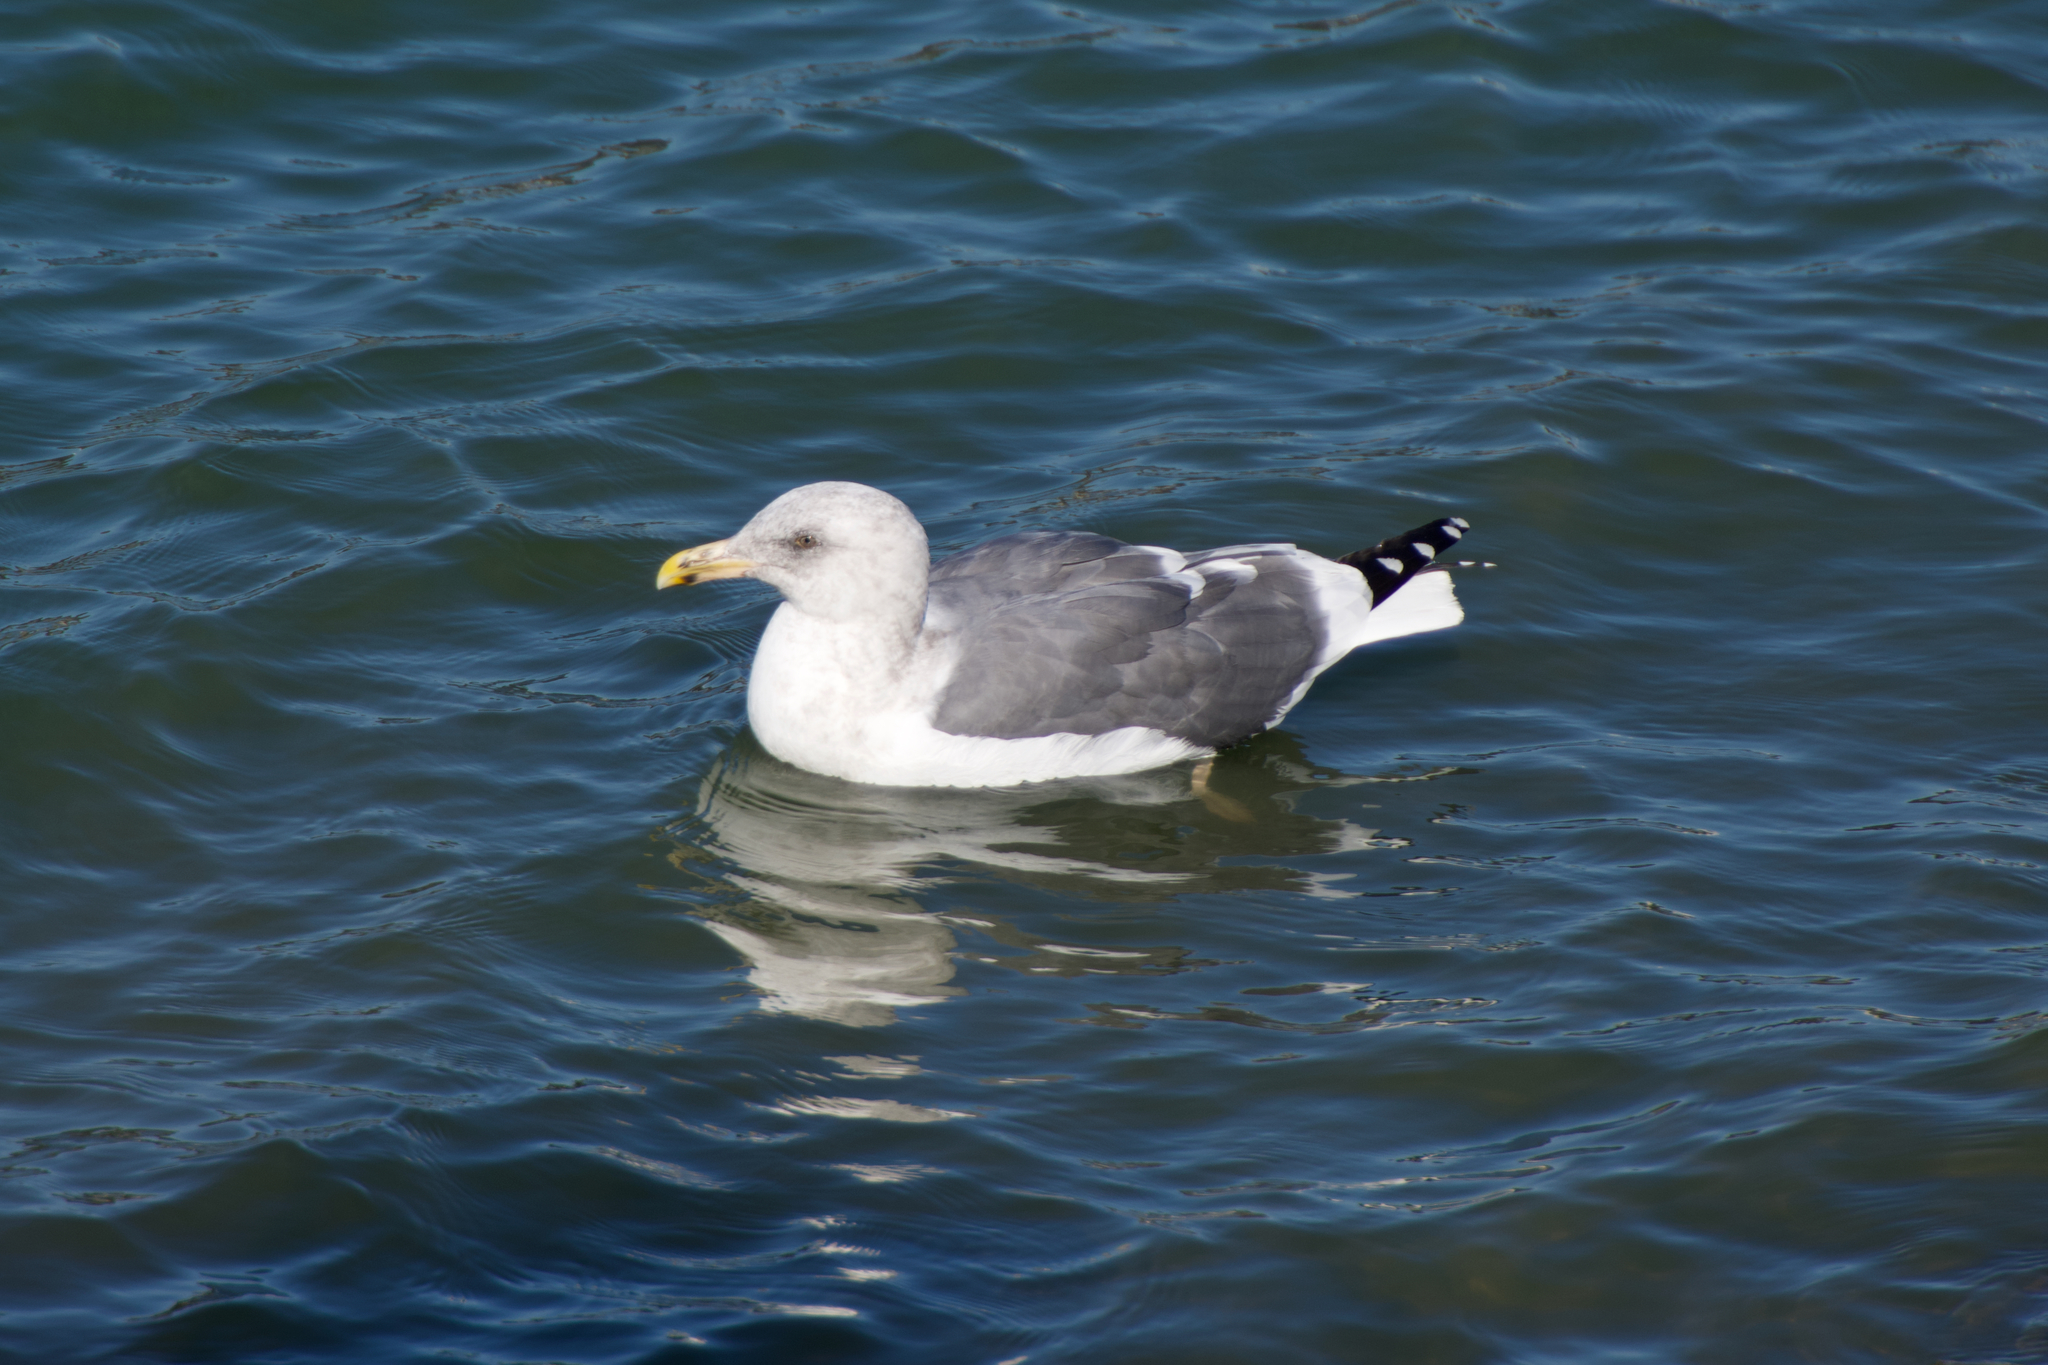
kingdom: Animalia
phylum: Chordata
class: Aves
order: Charadriiformes
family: Laridae
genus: Larus
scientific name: Larus occidentalis
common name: Western gull
